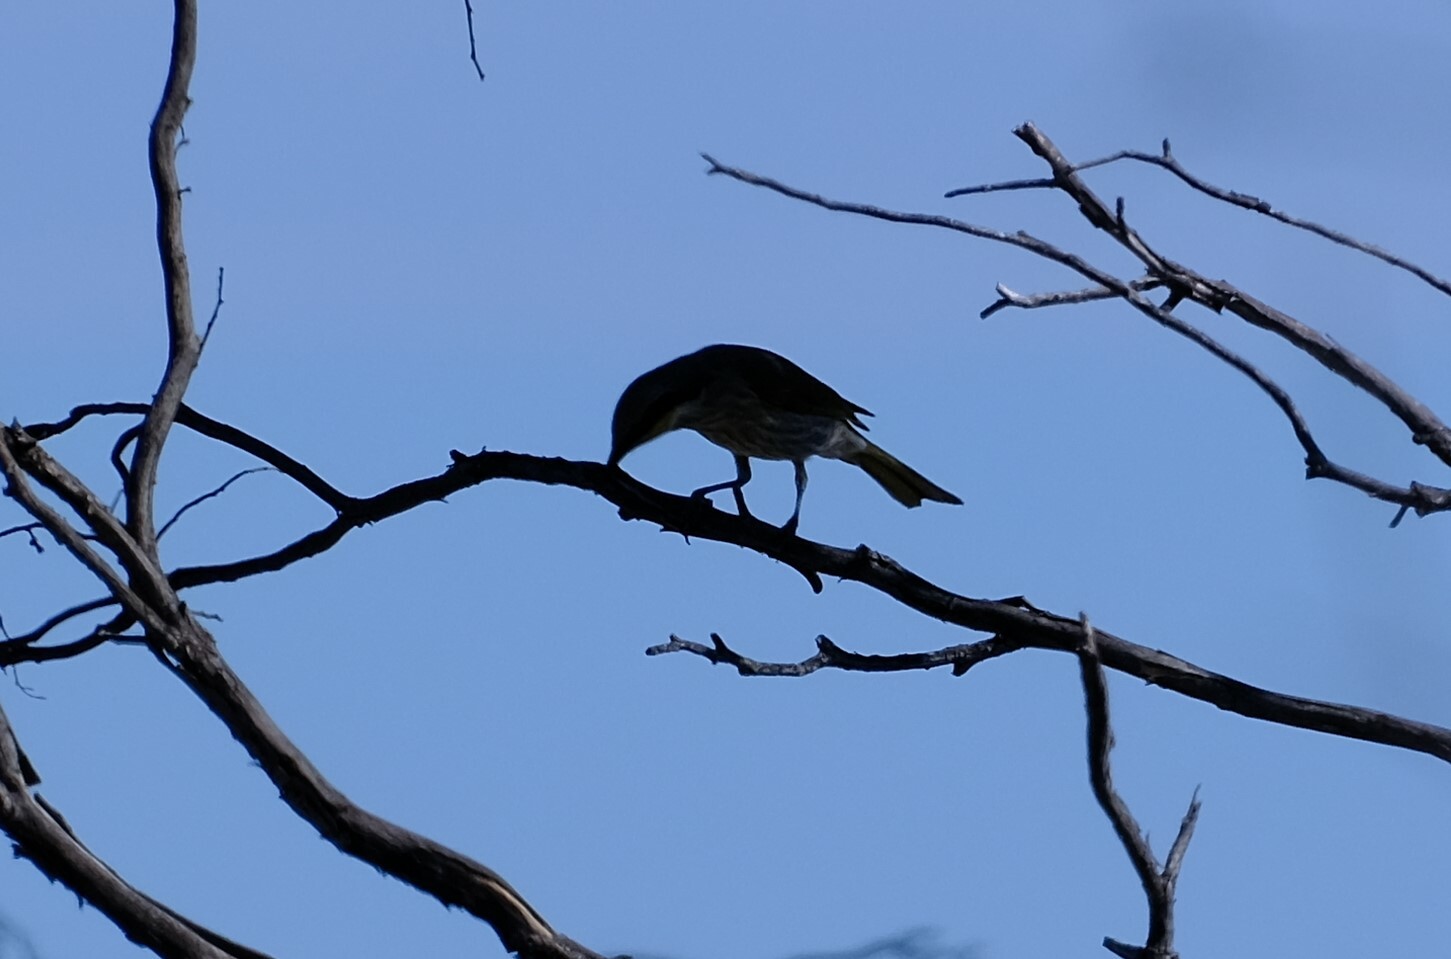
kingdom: Animalia
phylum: Chordata
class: Aves
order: Passeriformes
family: Meliphagidae
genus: Gavicalis
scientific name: Gavicalis virescens
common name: Singing honeyeater
